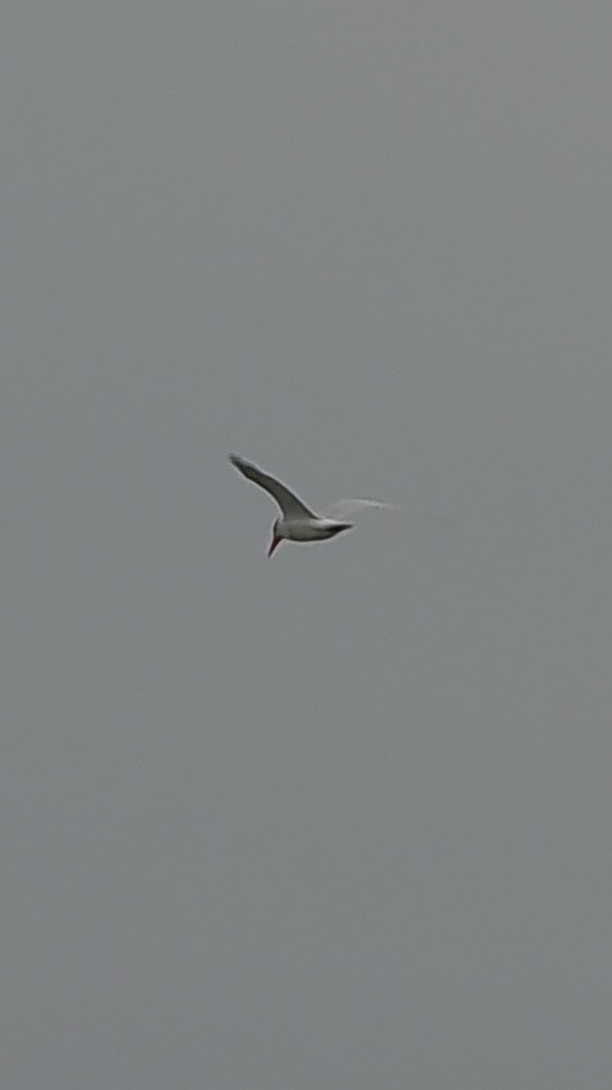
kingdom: Animalia
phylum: Chordata
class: Aves
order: Charadriiformes
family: Laridae
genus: Hydroprogne
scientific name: Hydroprogne caspia
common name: Caspian tern
